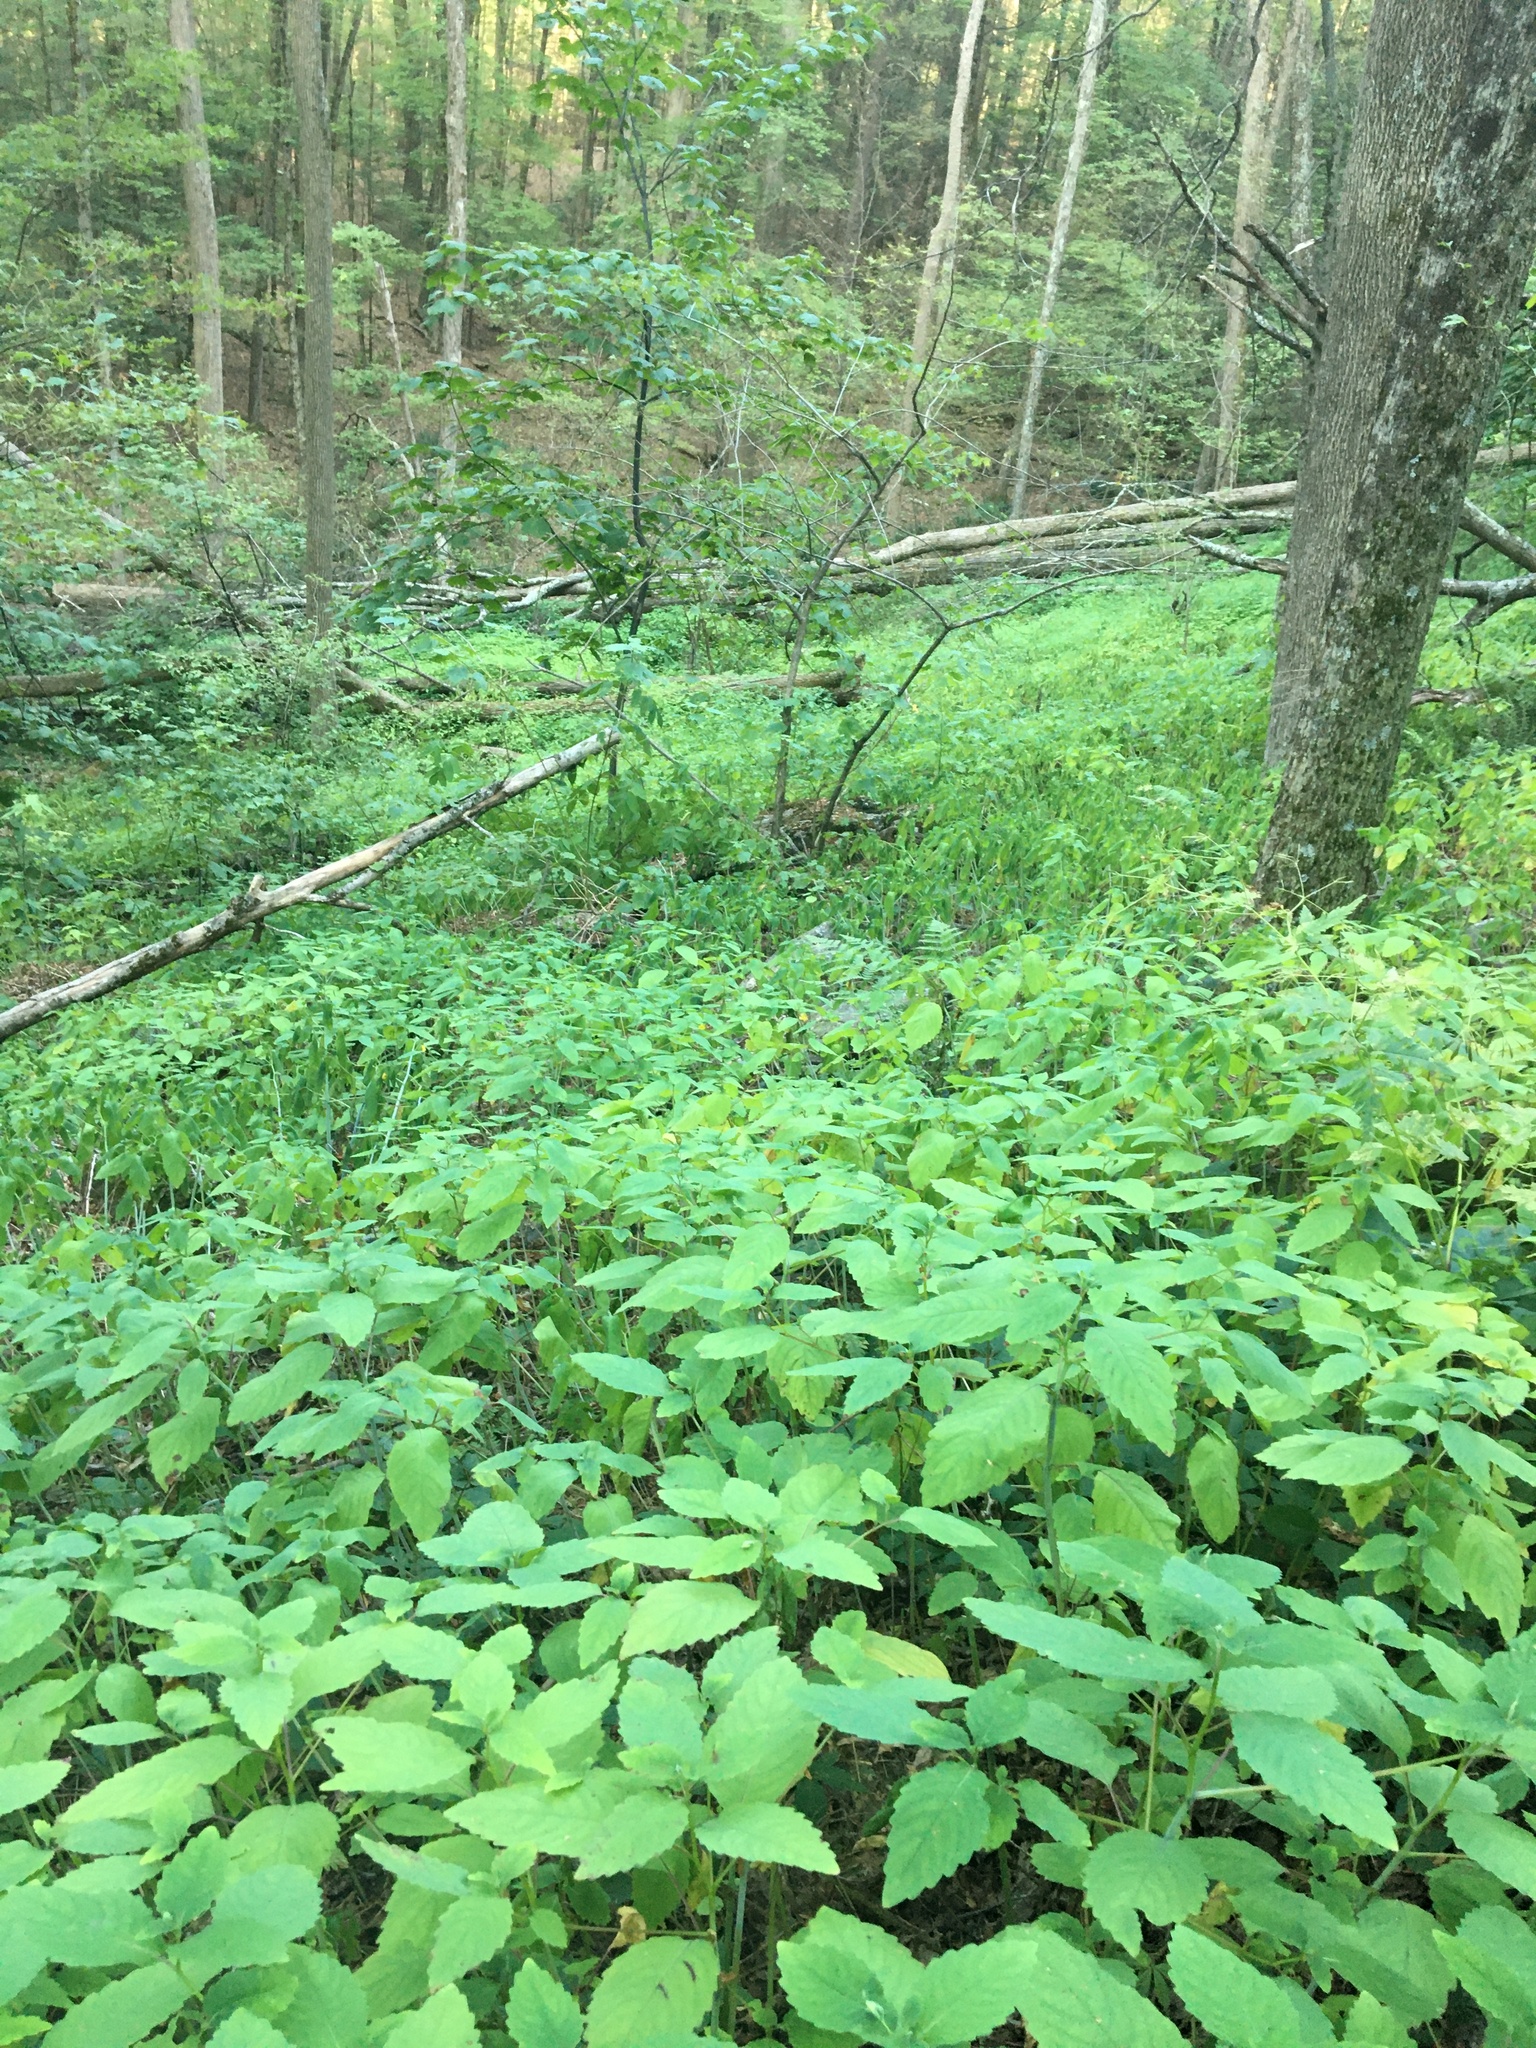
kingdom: Plantae
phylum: Tracheophyta
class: Magnoliopsida
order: Ericales
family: Balsaminaceae
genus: Impatiens
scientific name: Impatiens pallida
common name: Pale snapweed
